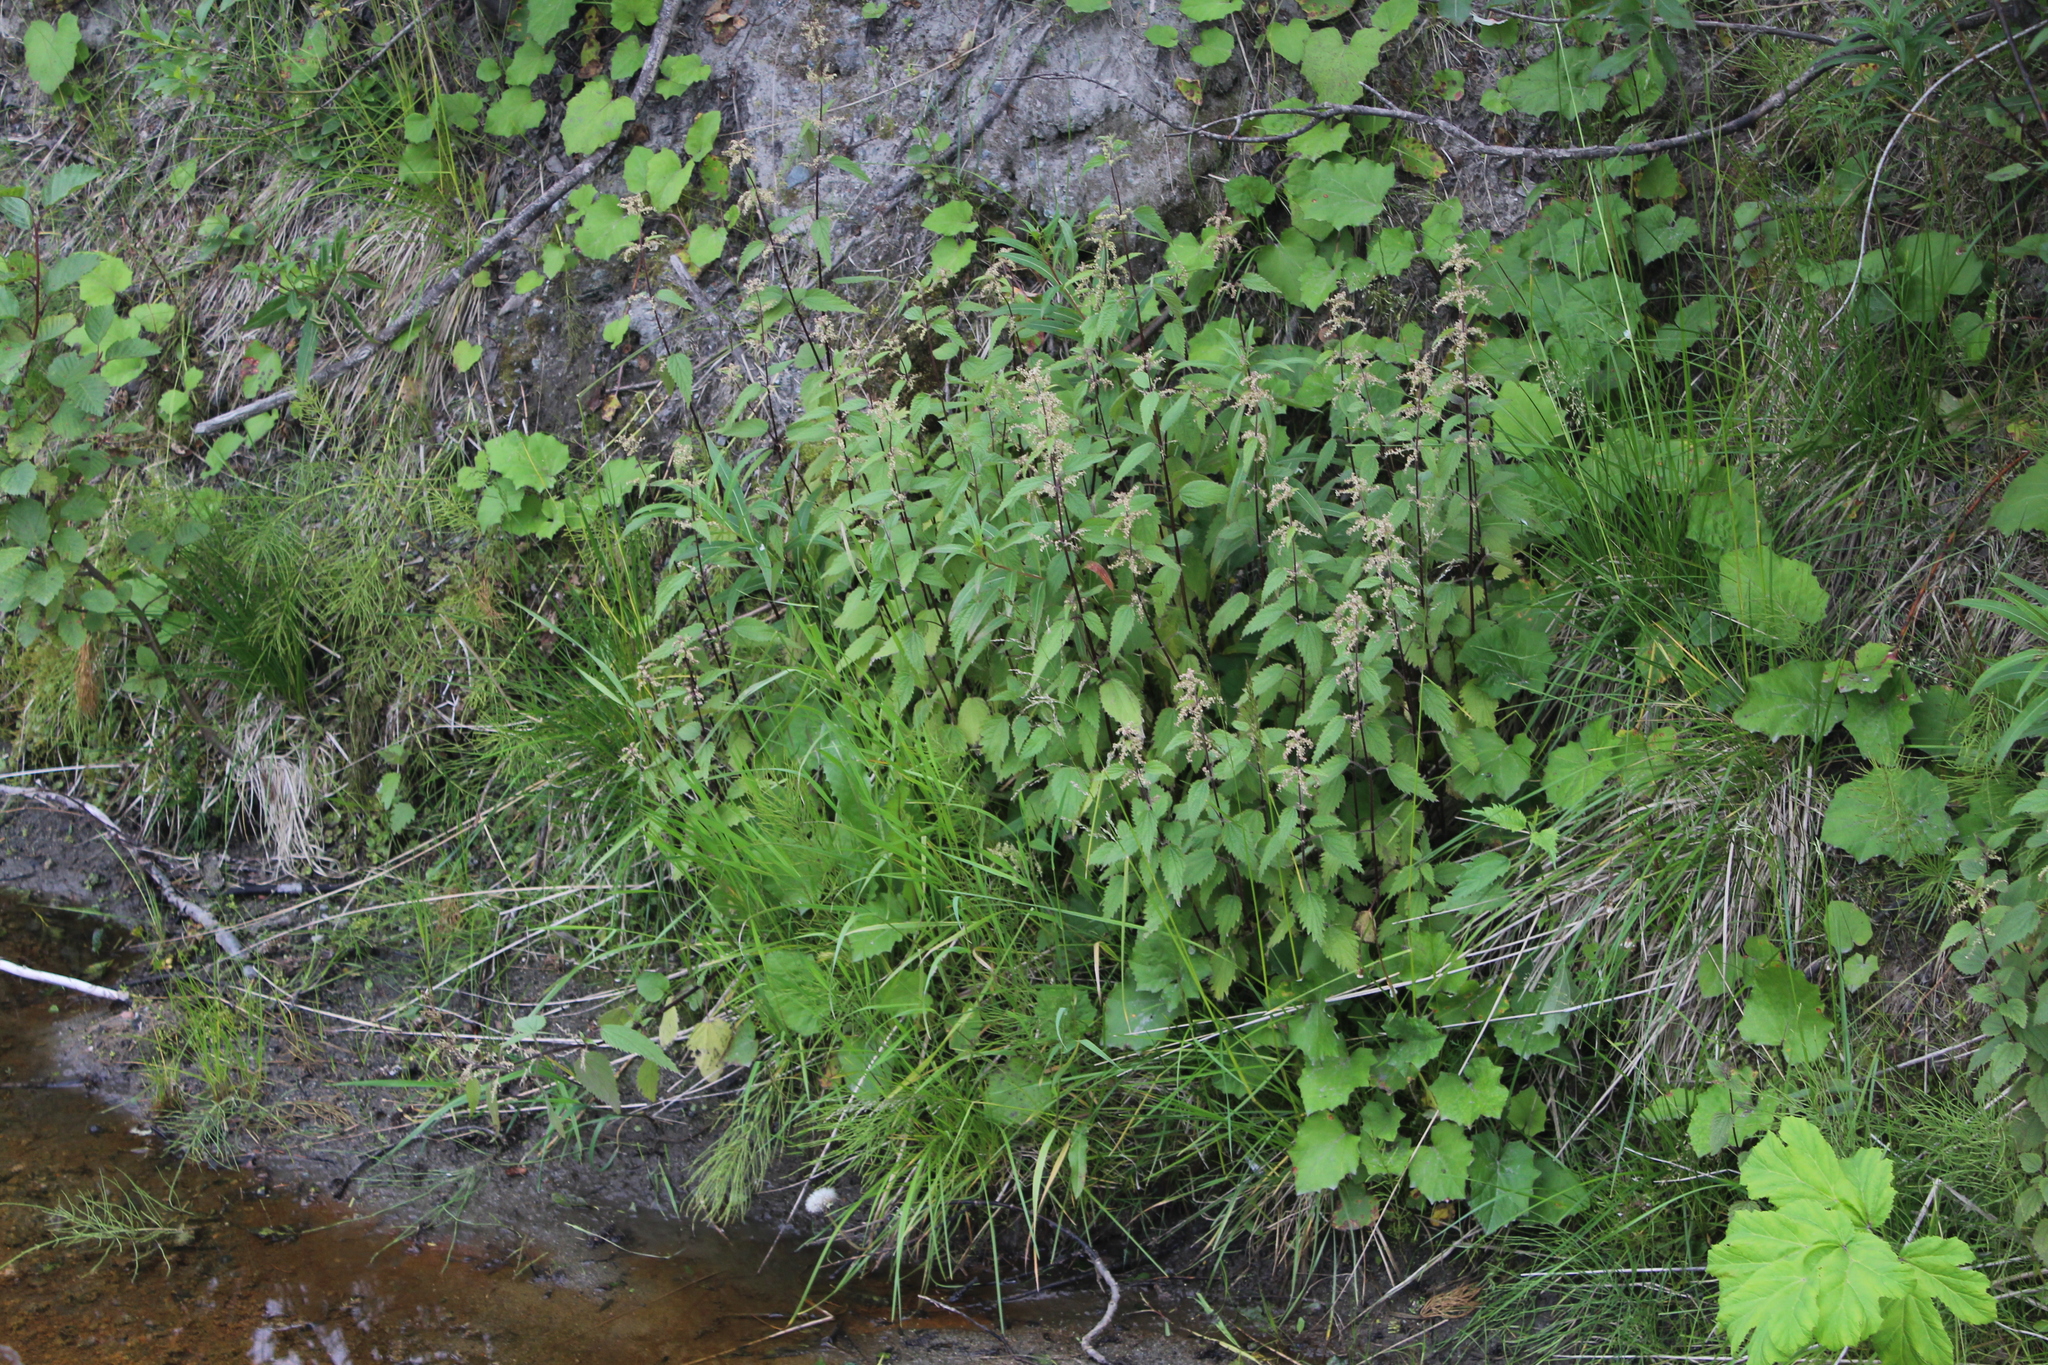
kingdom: Plantae
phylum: Tracheophyta
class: Magnoliopsida
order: Rosales
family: Urticaceae
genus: Urtica
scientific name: Urtica dioica
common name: Common nettle
